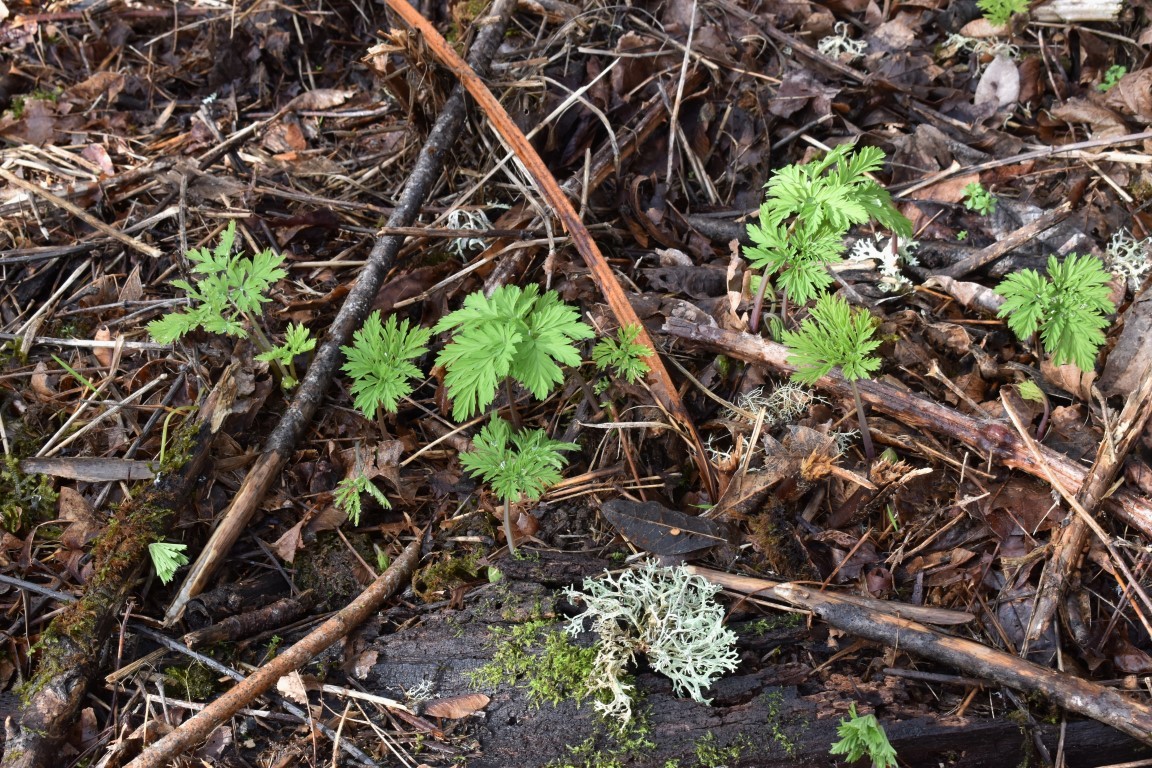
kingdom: Plantae
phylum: Tracheophyta
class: Magnoliopsida
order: Ranunculales
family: Papaveraceae
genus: Dicentra
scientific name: Dicentra formosa
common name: Bleeding-heart
